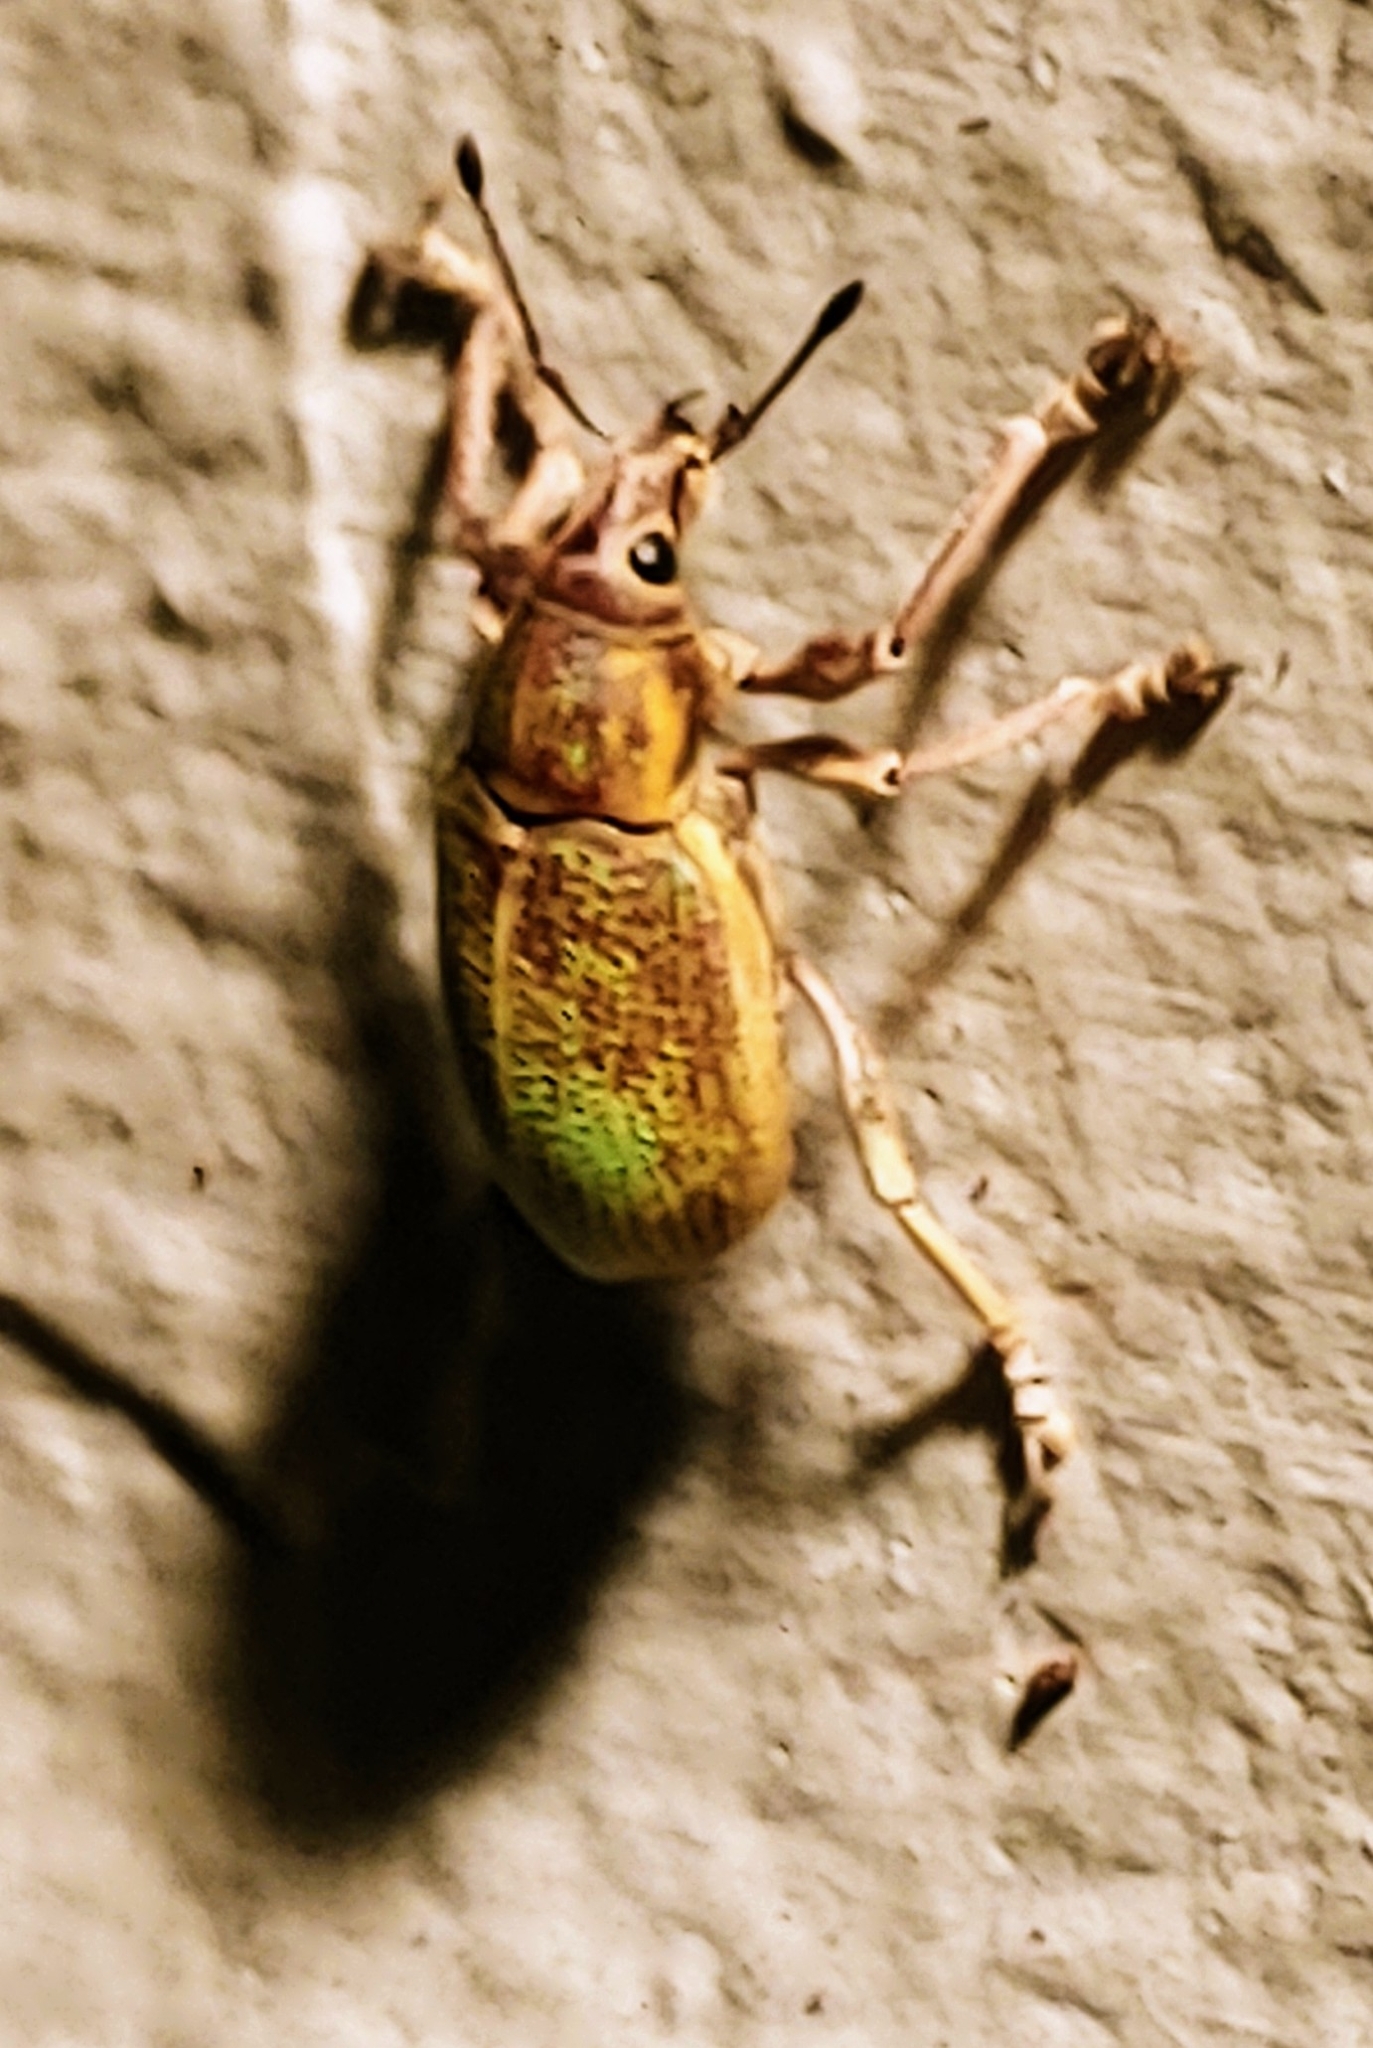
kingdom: Animalia
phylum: Arthropoda
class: Insecta
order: Coleoptera
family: Curculionidae
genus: Pachnaeus
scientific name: Pachnaeus litus
